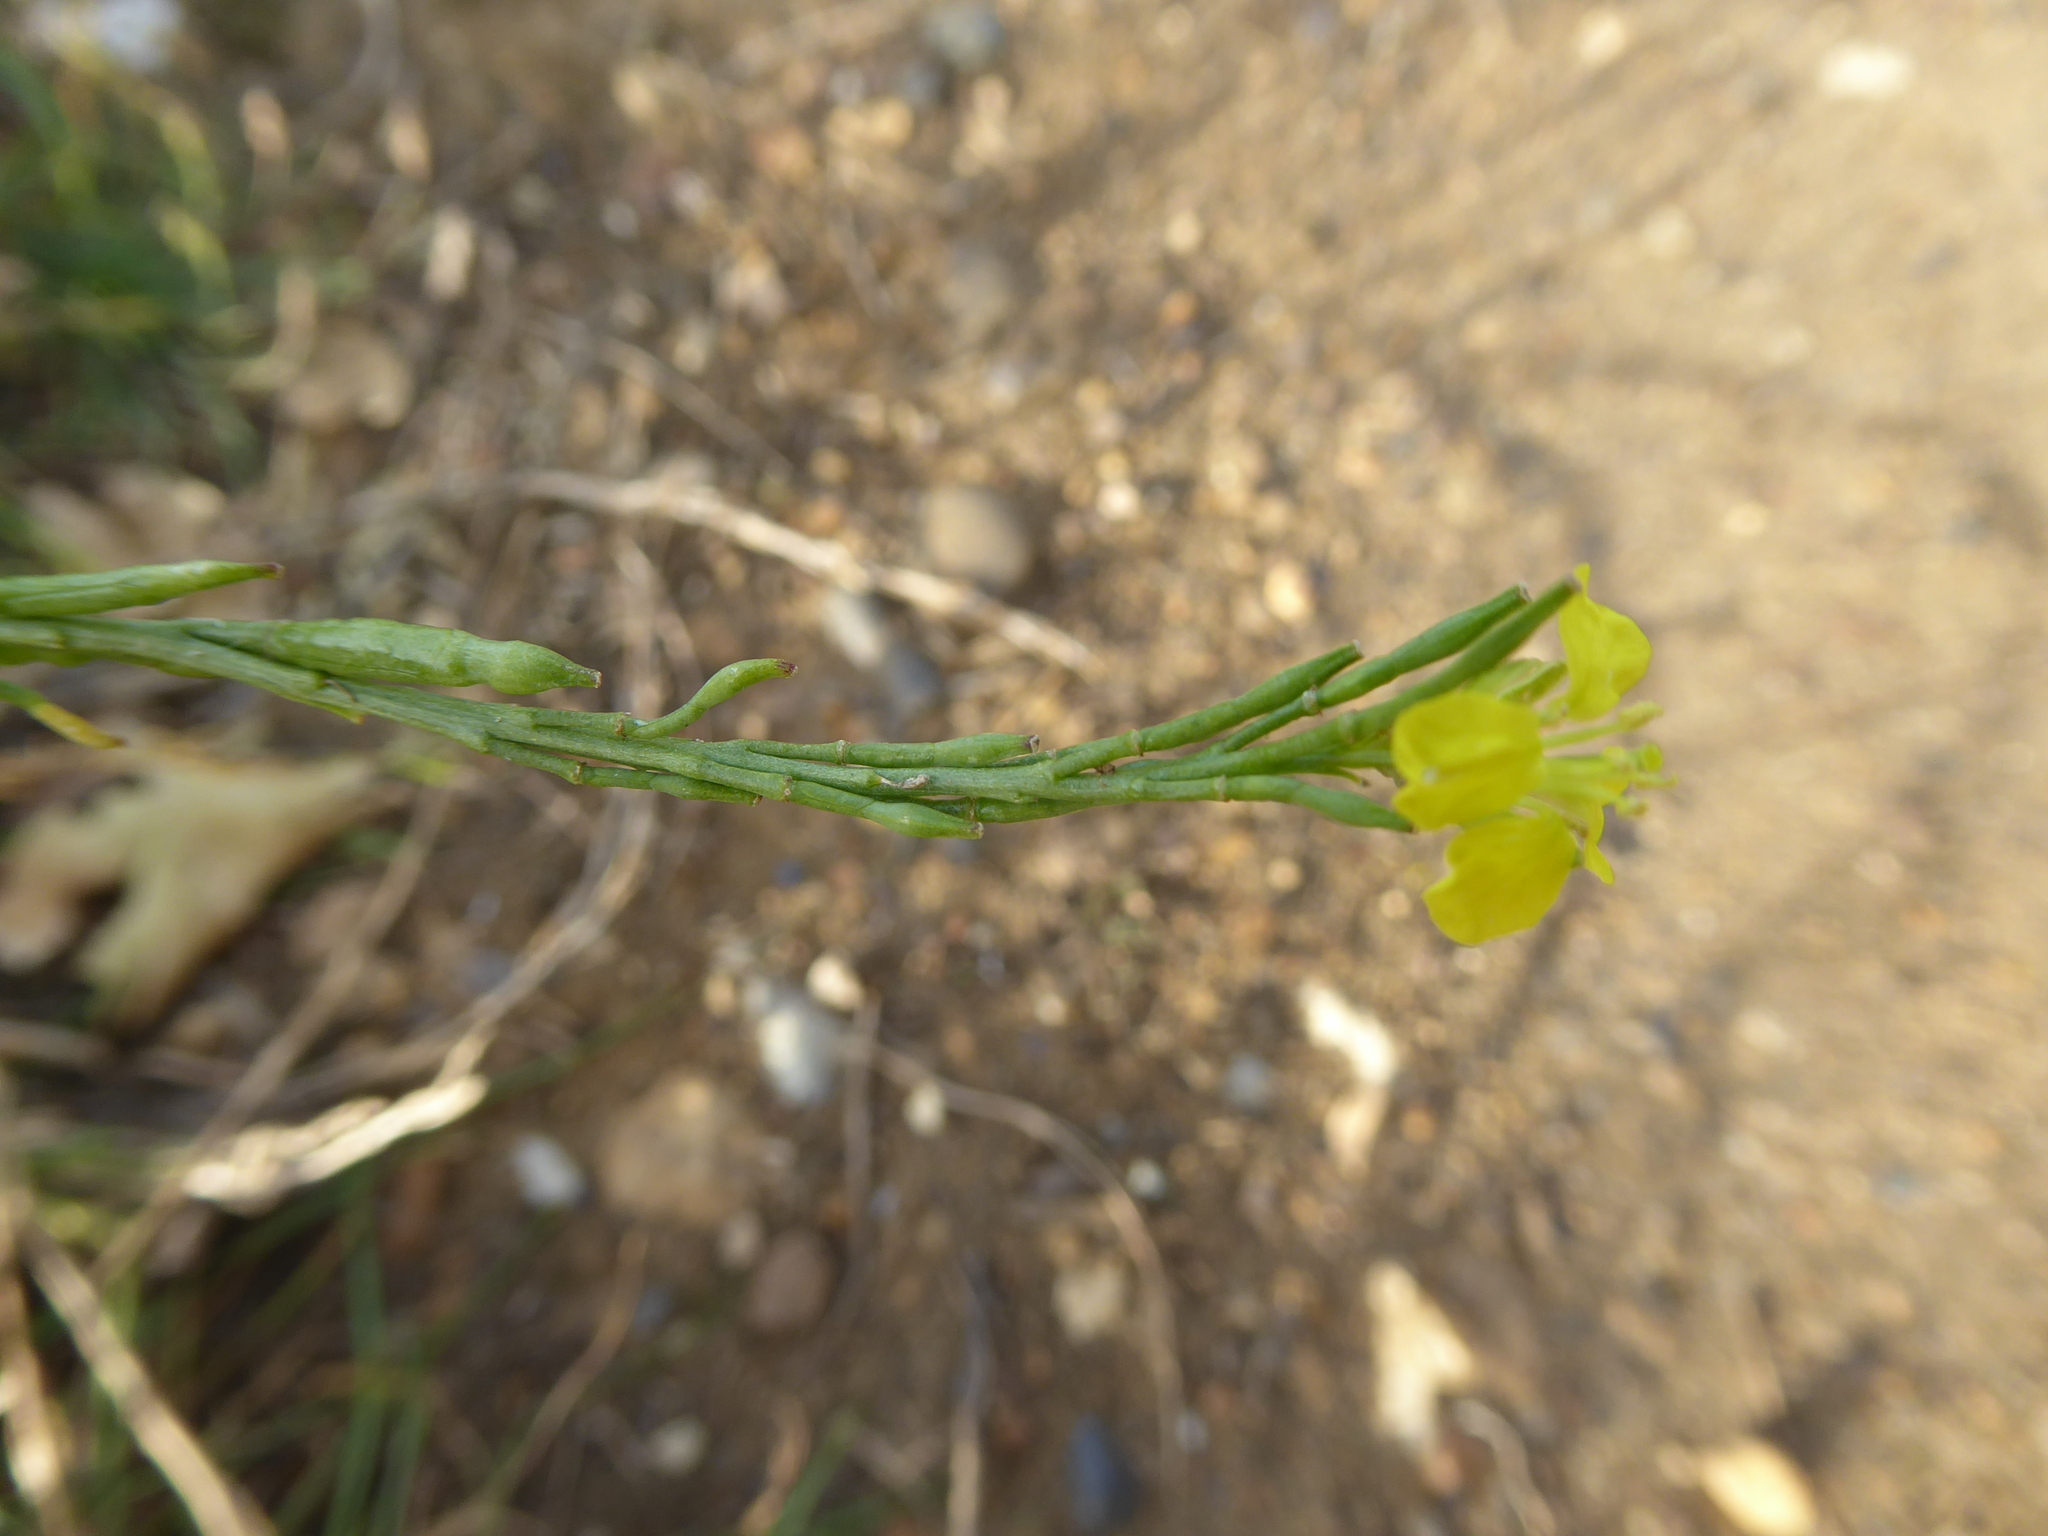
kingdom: Plantae
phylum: Tracheophyta
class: Magnoliopsida
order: Brassicales
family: Brassicaceae
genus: Hirschfeldia
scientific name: Hirschfeldia incana
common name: Hoary mustard
